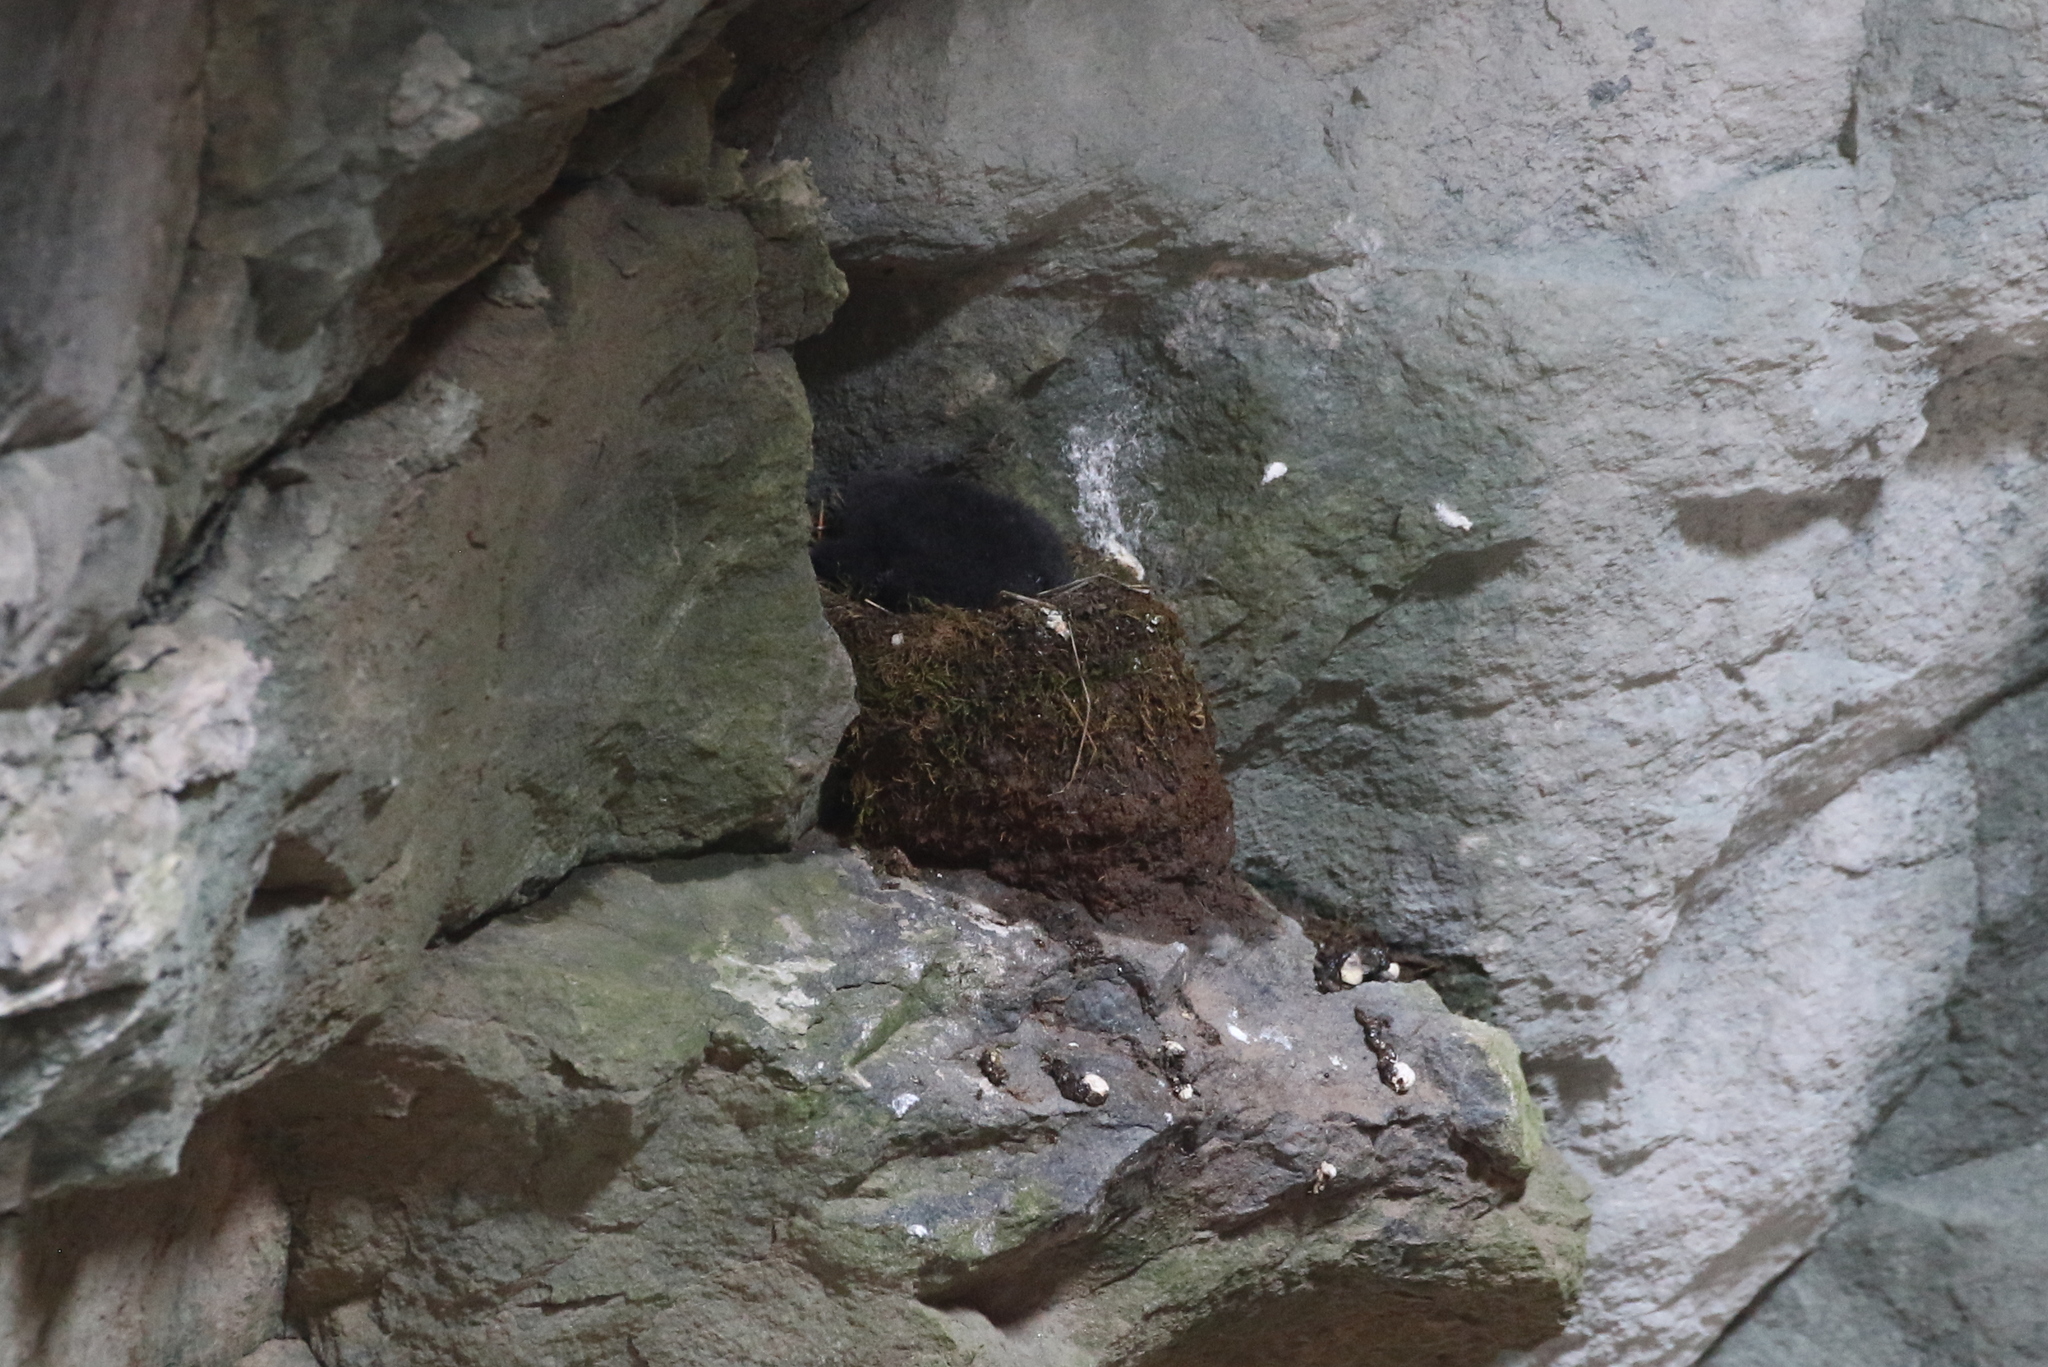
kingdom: Animalia
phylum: Chordata
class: Aves
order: Apodiformes
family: Apodidae
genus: Cypseloides
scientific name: Cypseloides niger
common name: Black swift
